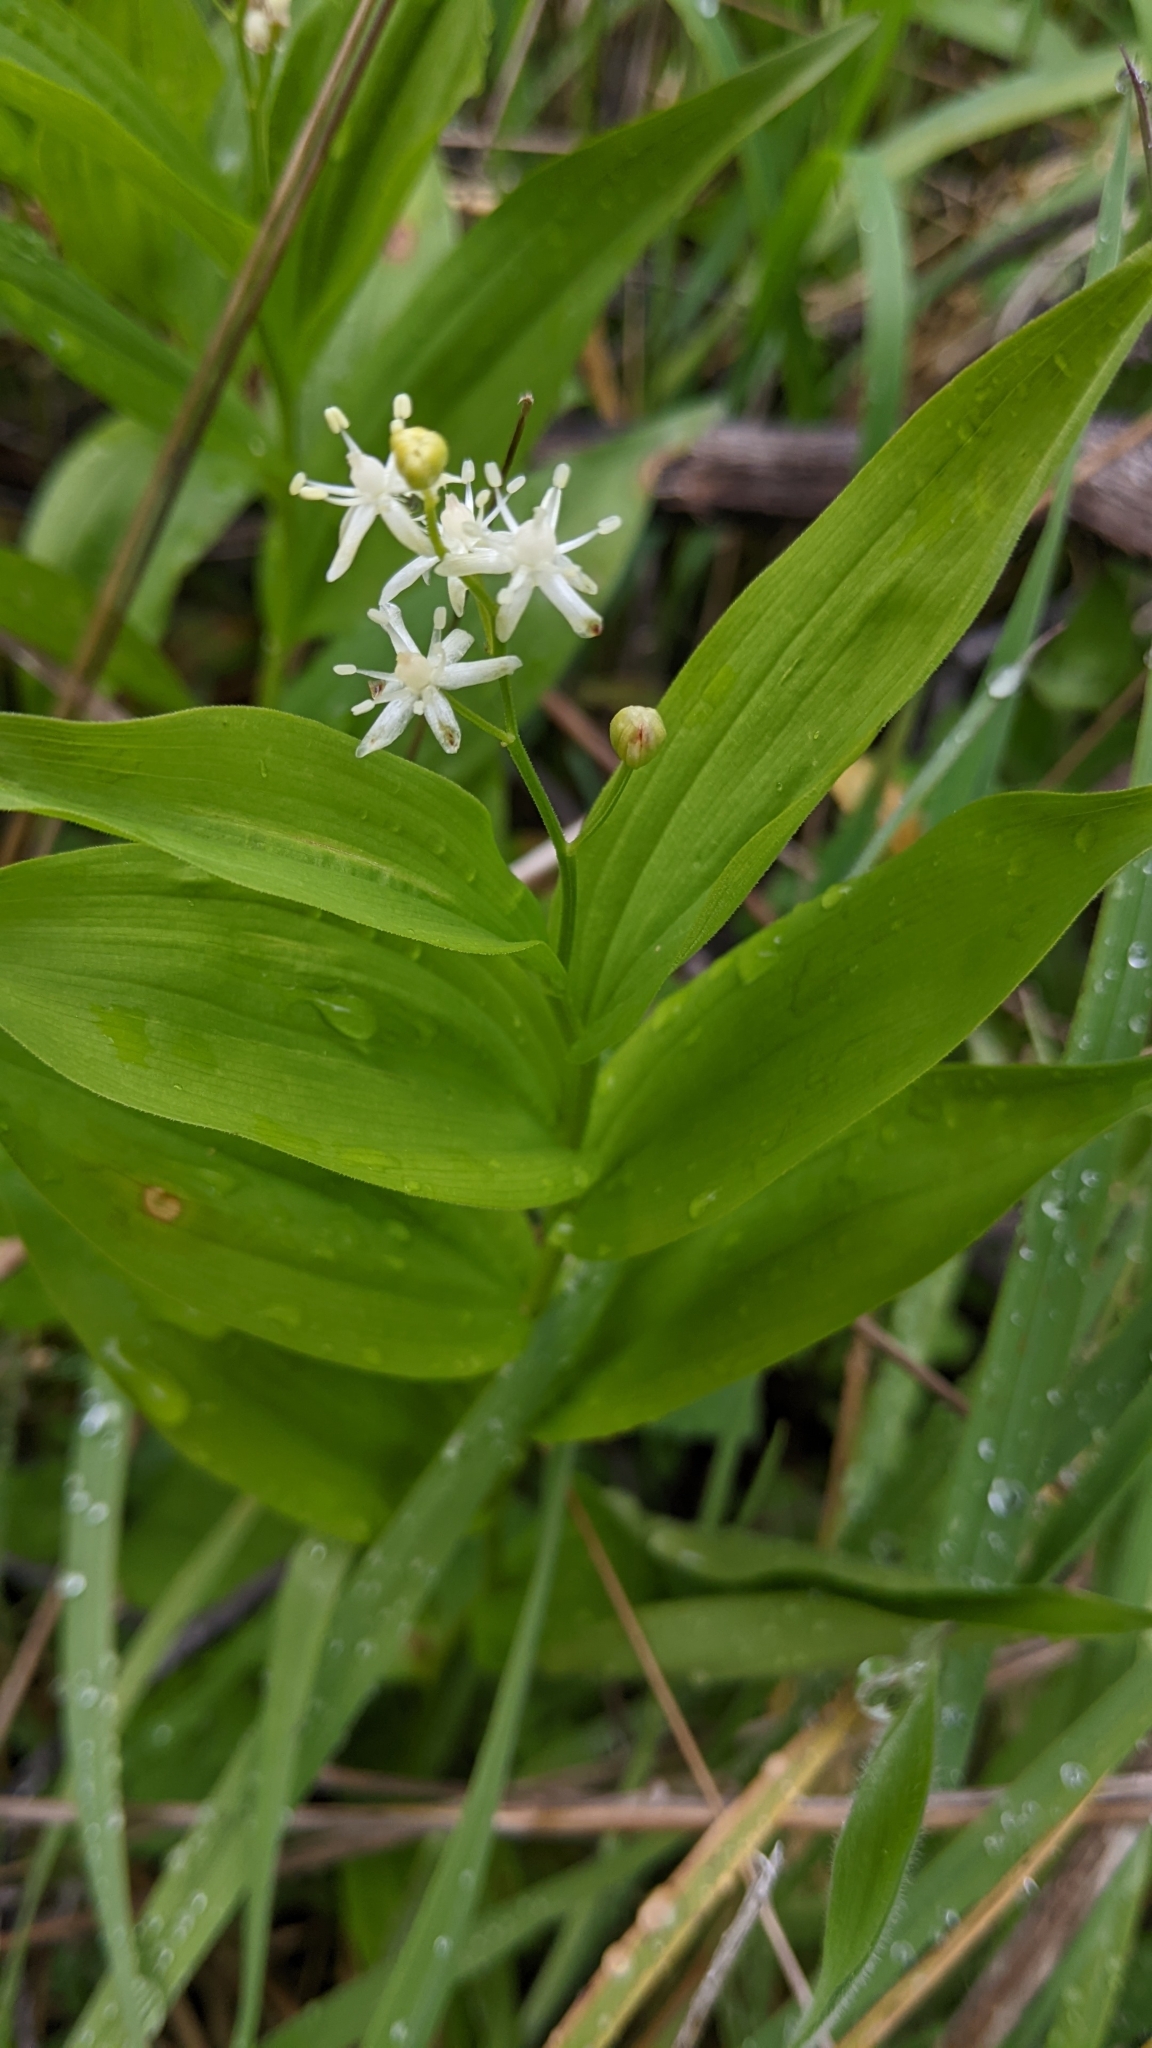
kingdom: Plantae
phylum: Tracheophyta
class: Liliopsida
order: Asparagales
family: Asparagaceae
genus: Maianthemum
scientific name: Maianthemum stellatum
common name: Little false solomon's seal
